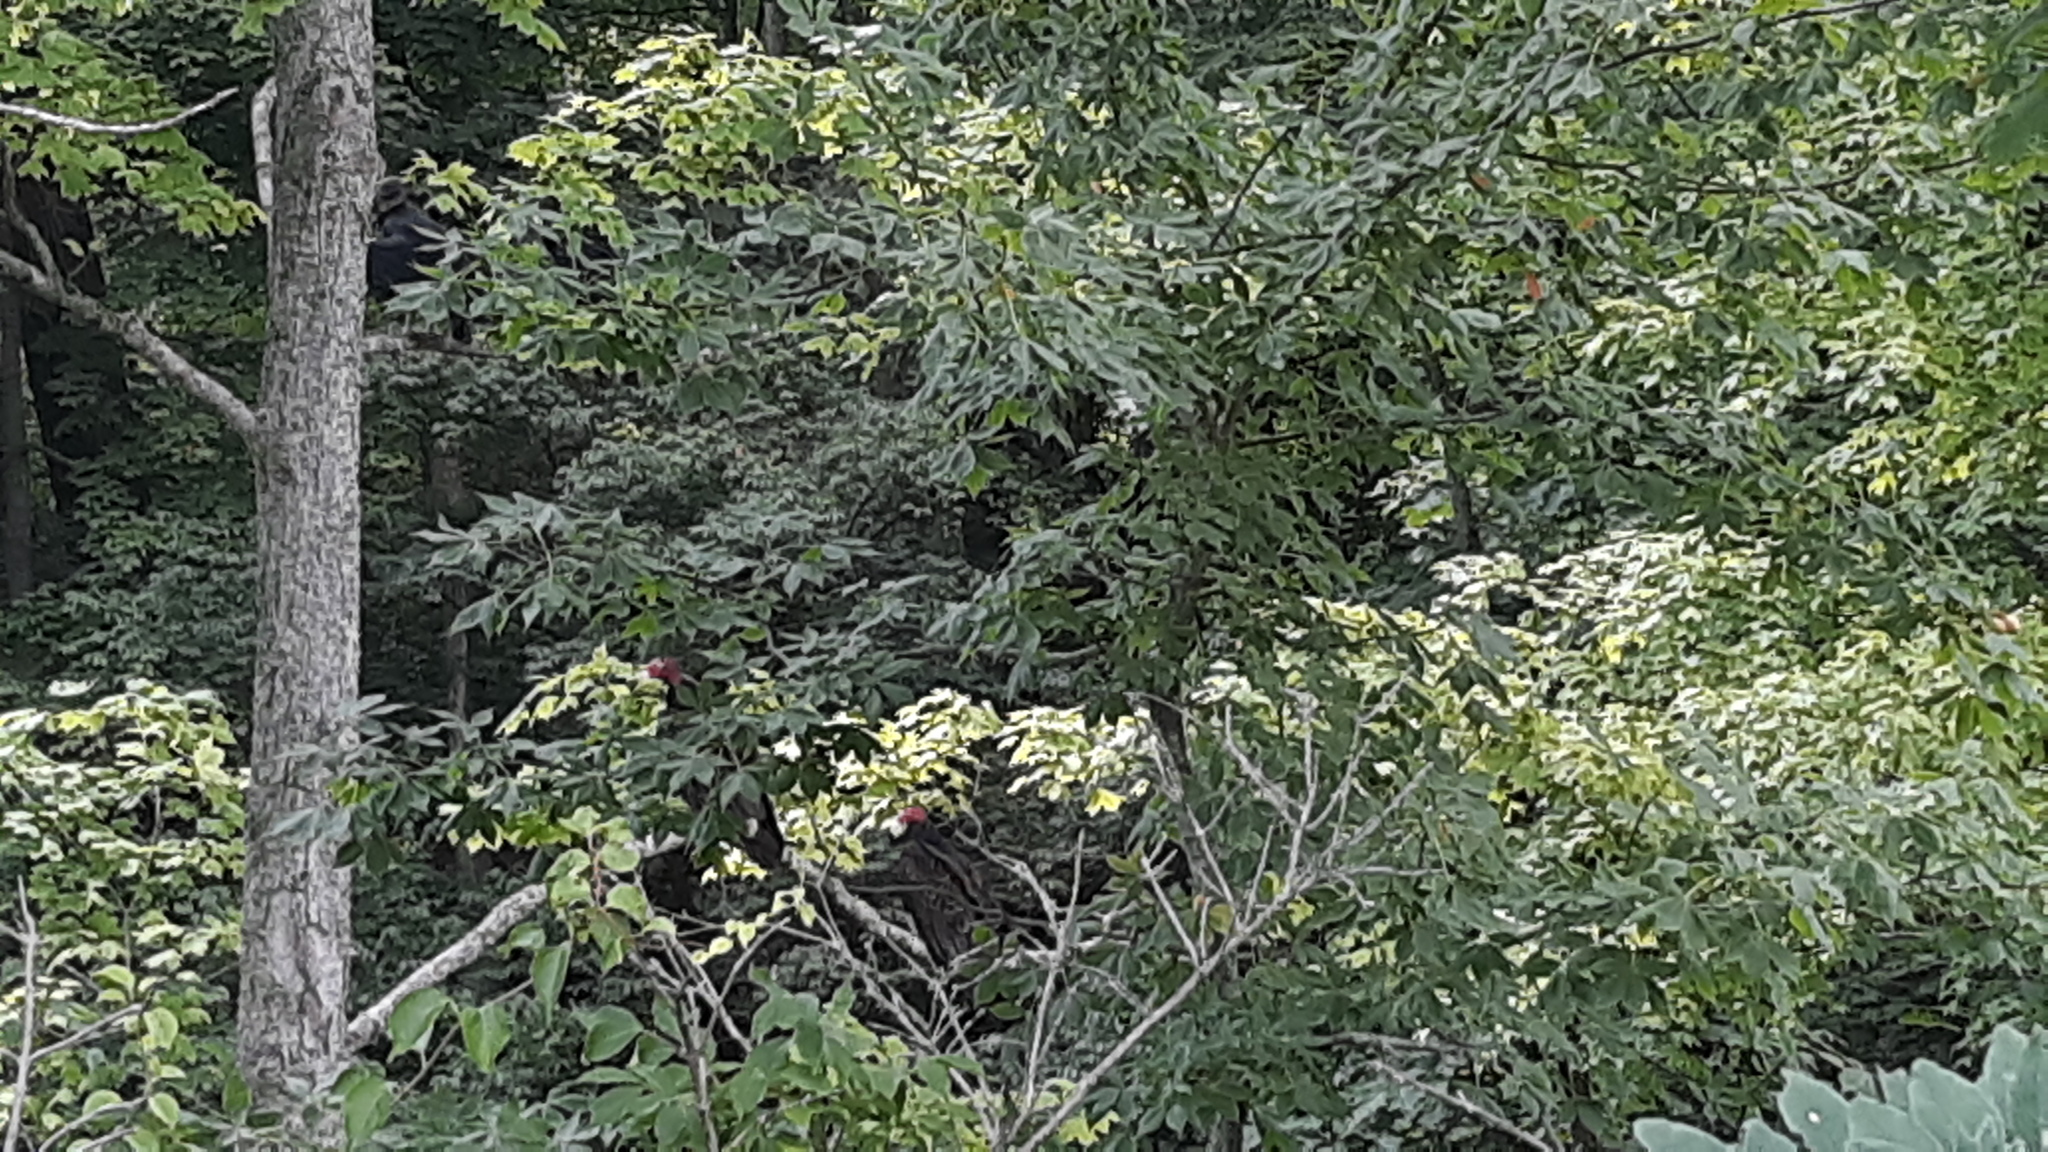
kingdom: Animalia
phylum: Chordata
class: Aves
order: Accipitriformes
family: Cathartidae
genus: Cathartes
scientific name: Cathartes aura
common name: Turkey vulture
